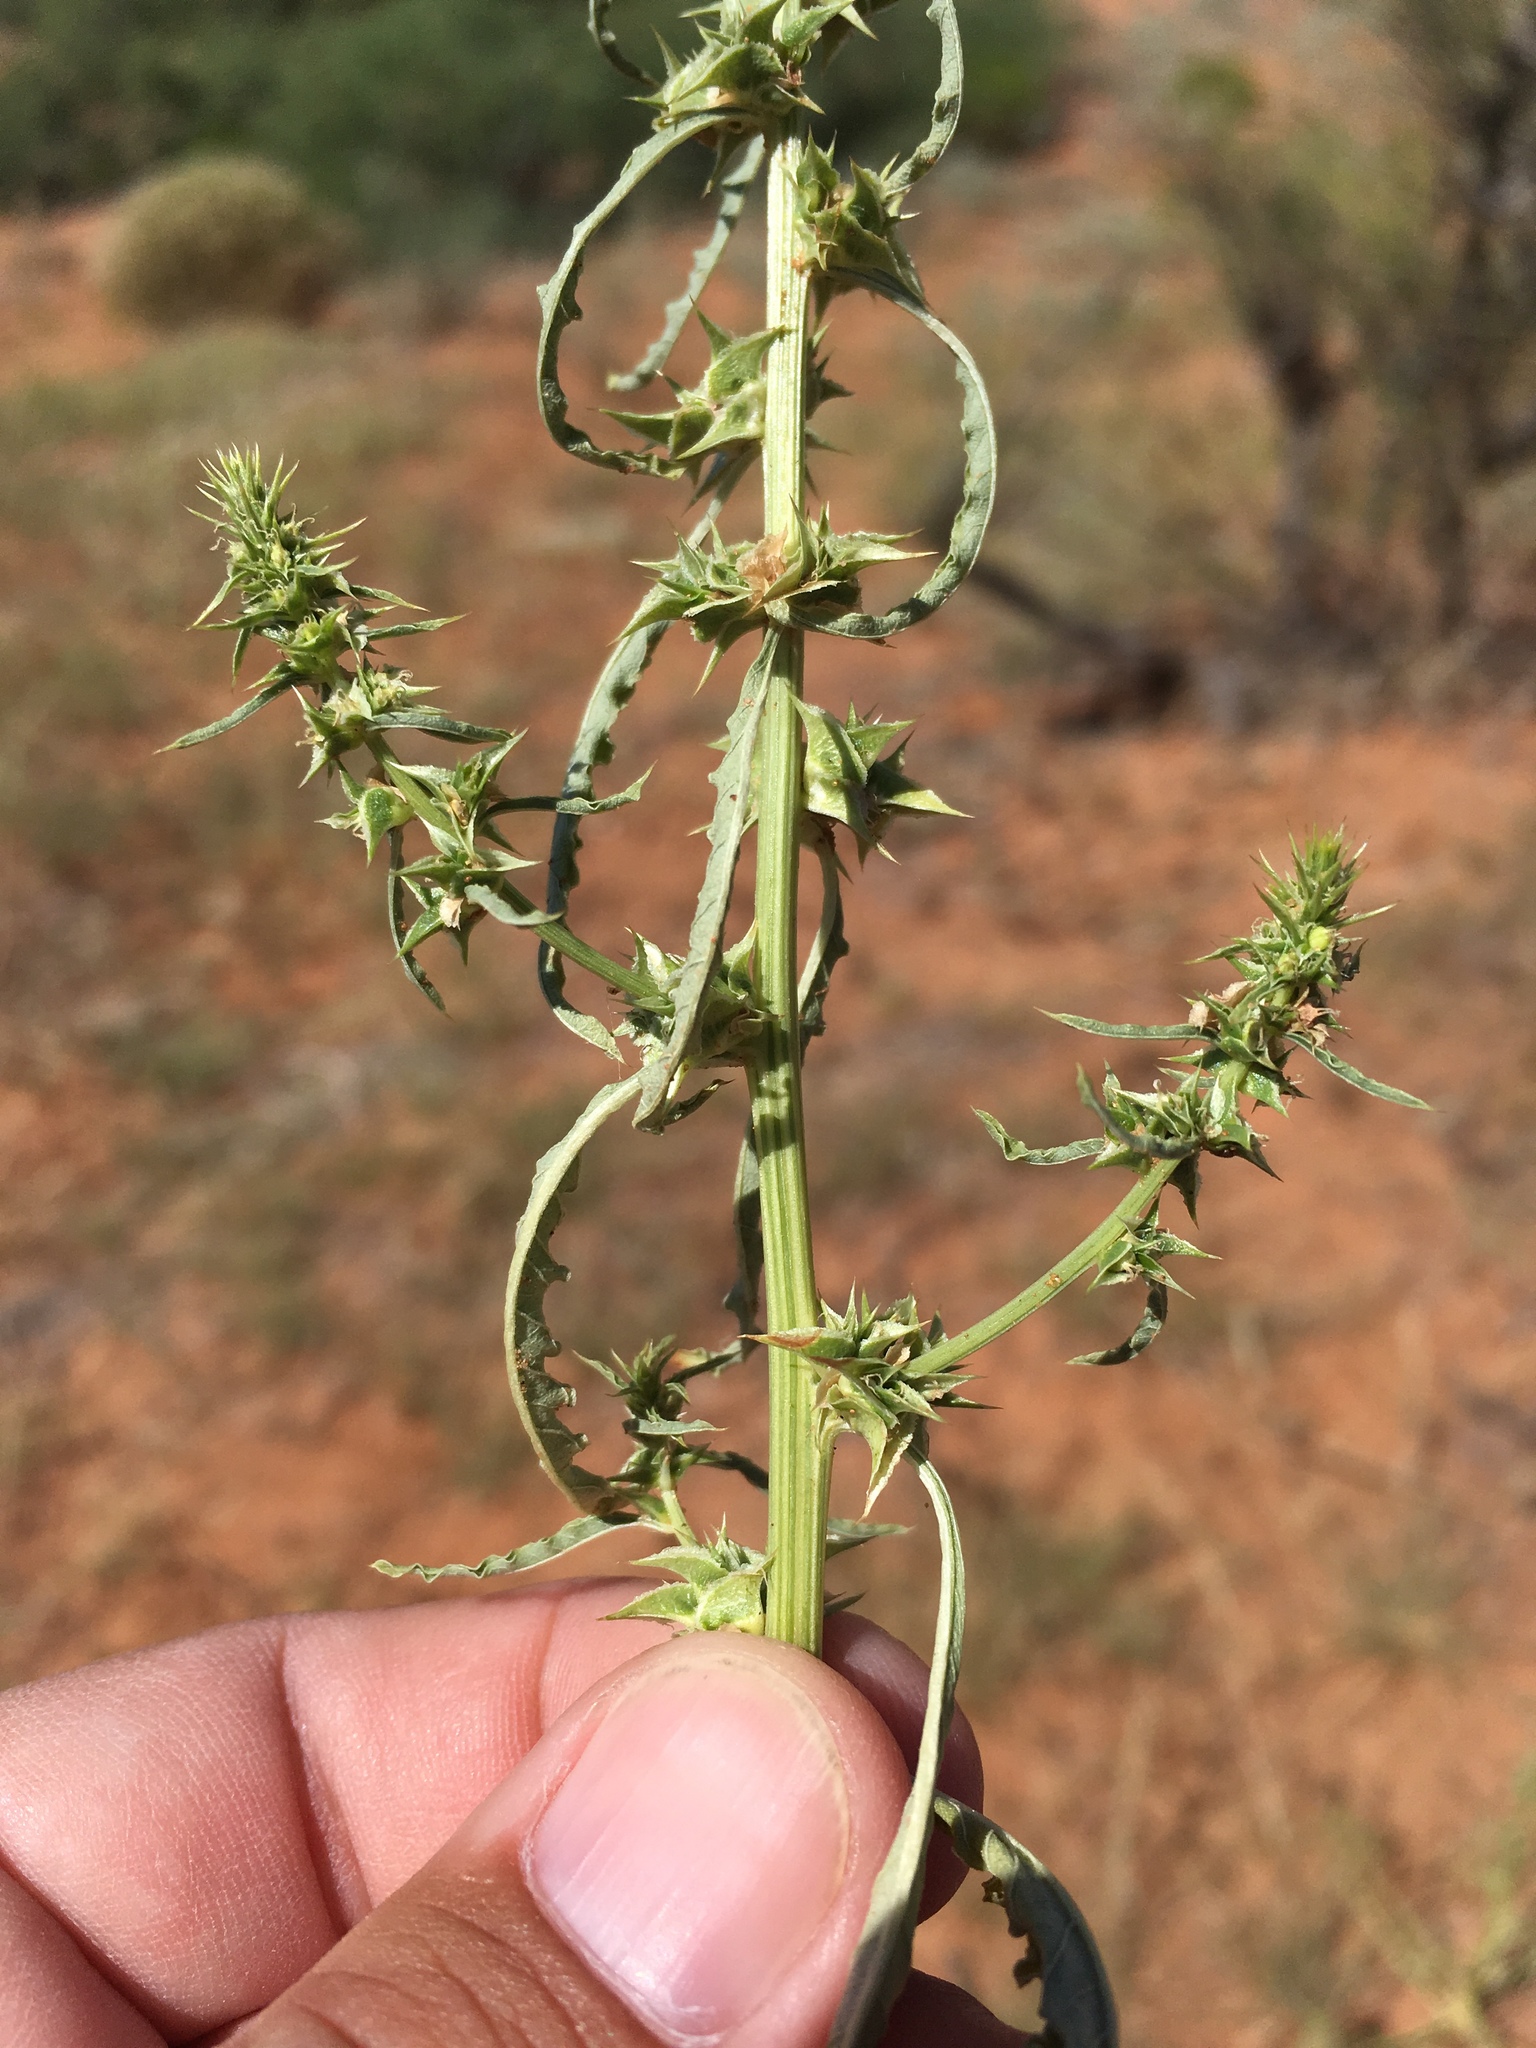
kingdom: Plantae
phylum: Tracheophyta
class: Magnoliopsida
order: Caryophyllales
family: Amaranthaceae
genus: Amaranthus
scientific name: Amaranthus acanthochiton
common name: Greenstripe
